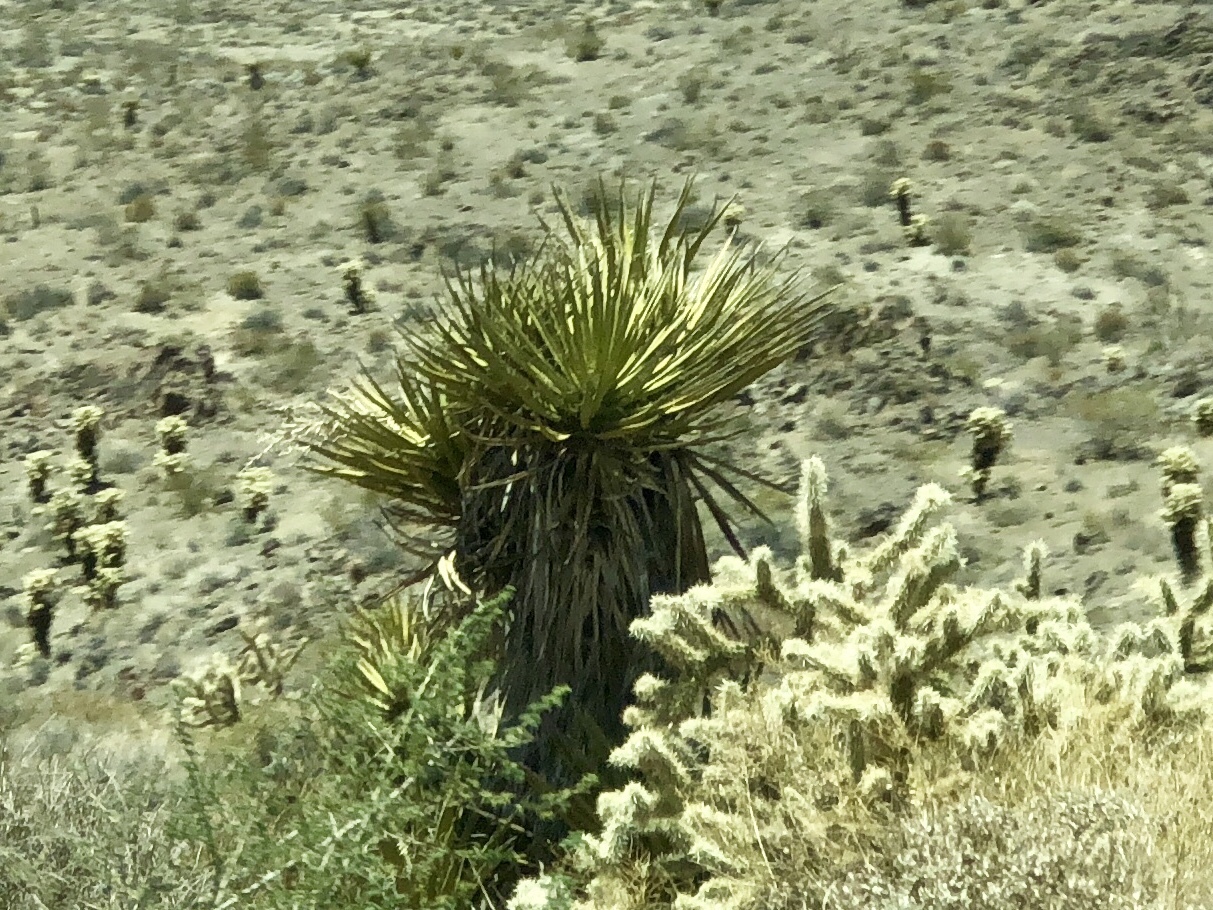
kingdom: Plantae
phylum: Tracheophyta
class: Liliopsida
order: Asparagales
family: Asparagaceae
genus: Yucca
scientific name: Yucca schidigera
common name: Mojave yucca
